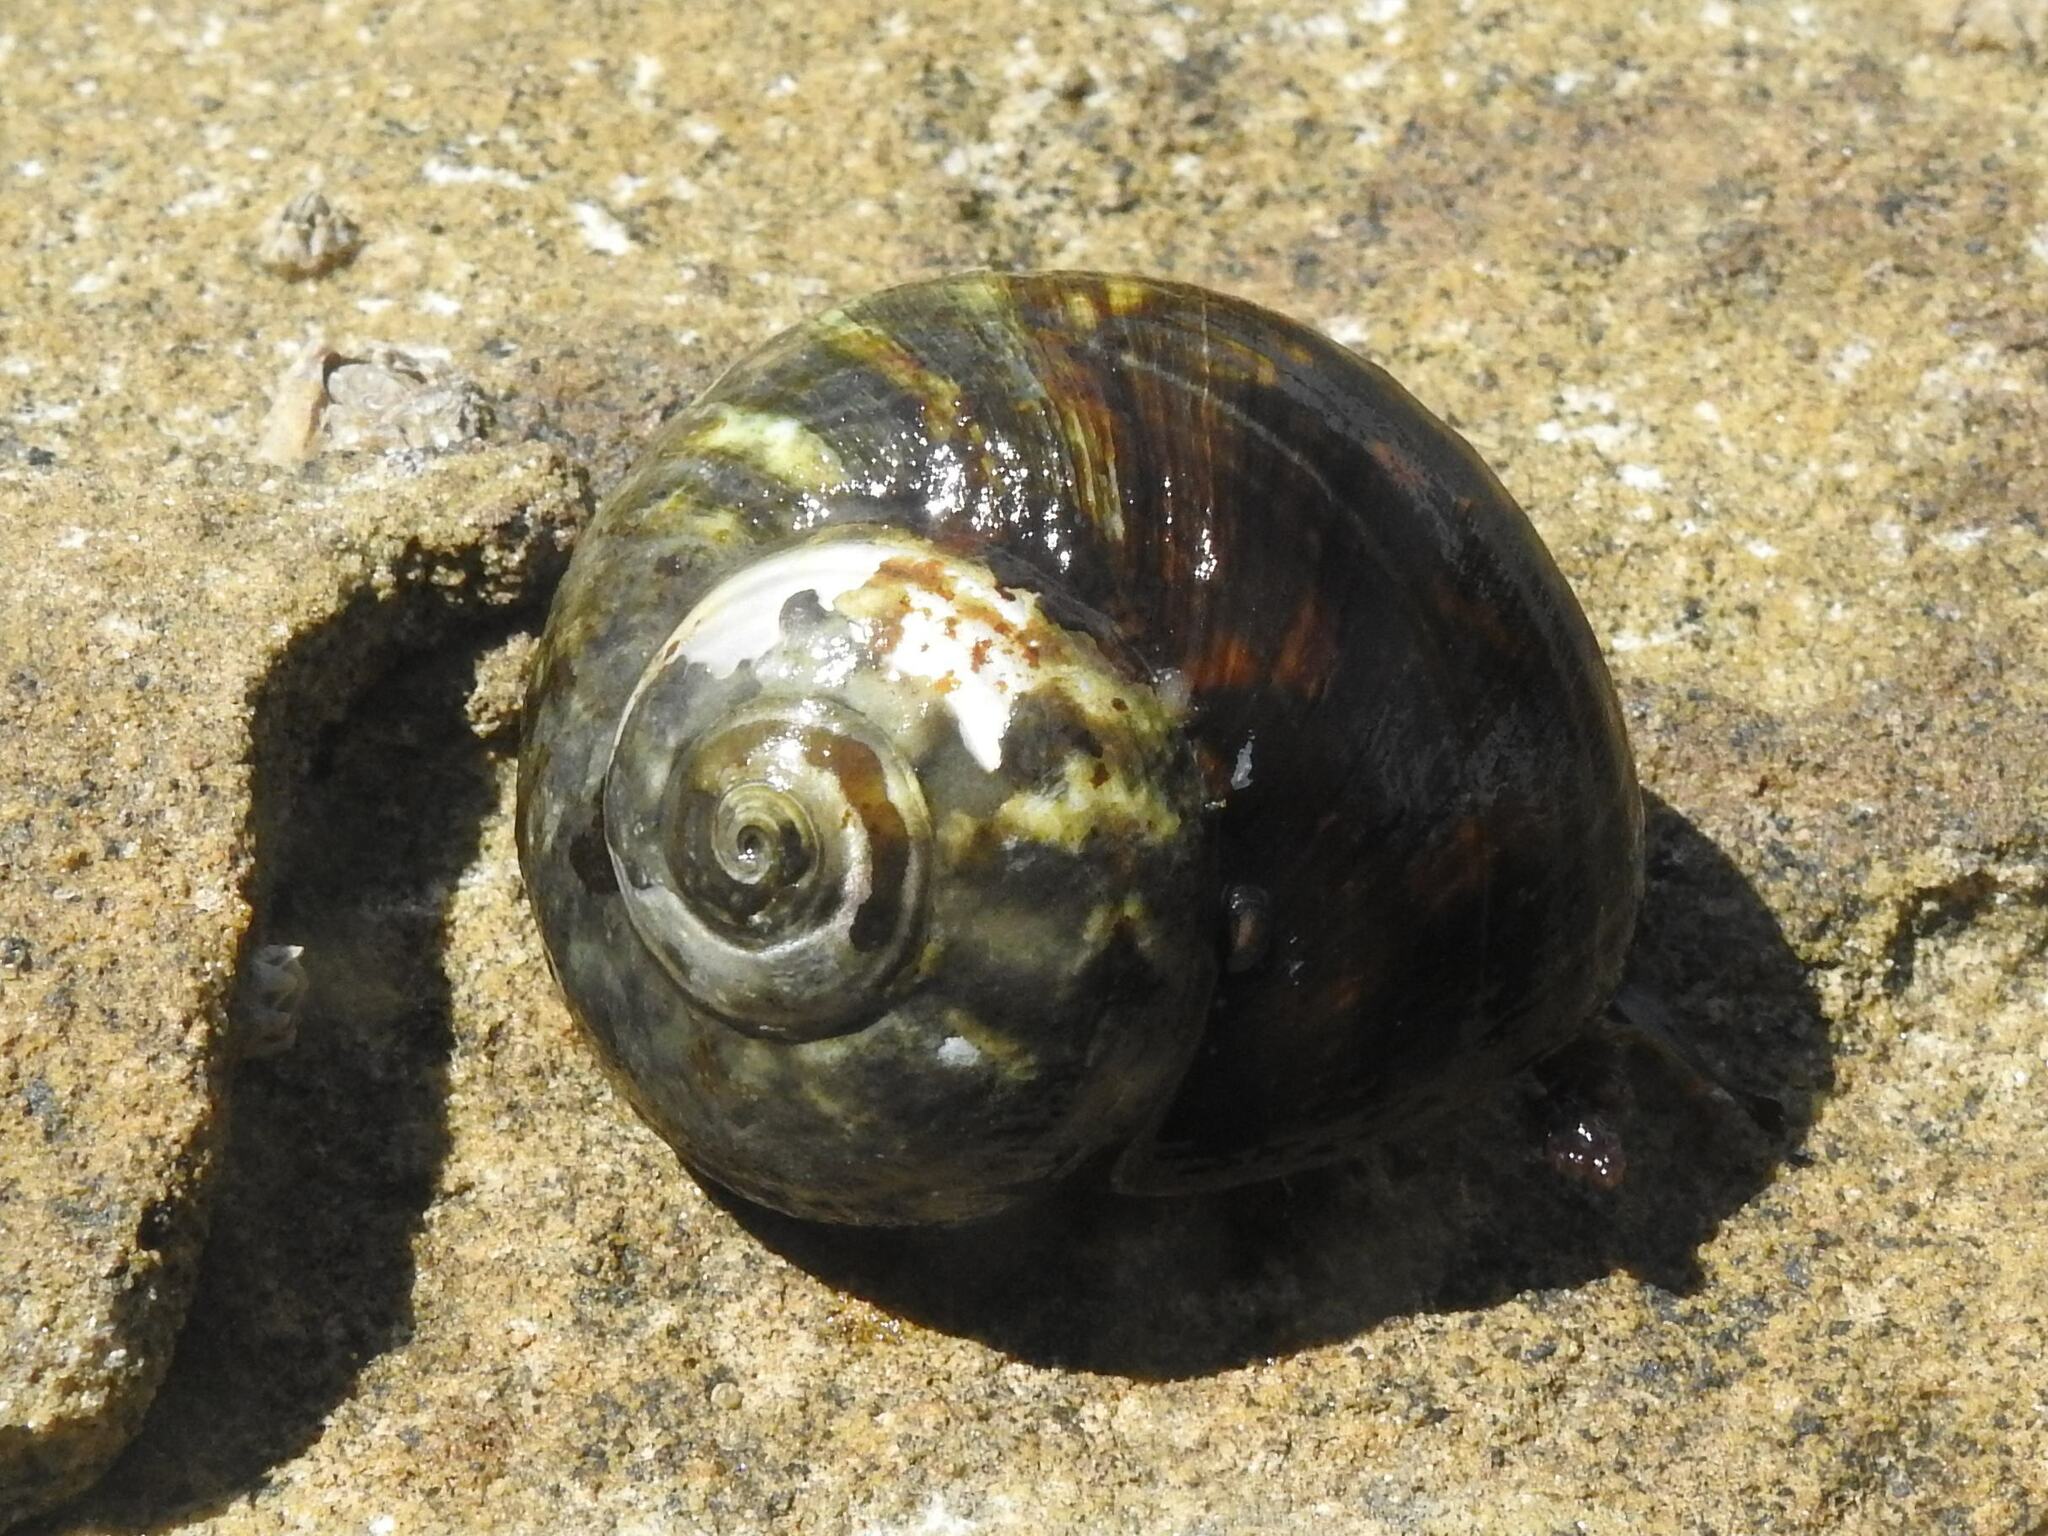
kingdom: Animalia
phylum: Mollusca
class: Gastropoda
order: Trochida
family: Turbinidae
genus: Lunella
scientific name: Lunella undulata
